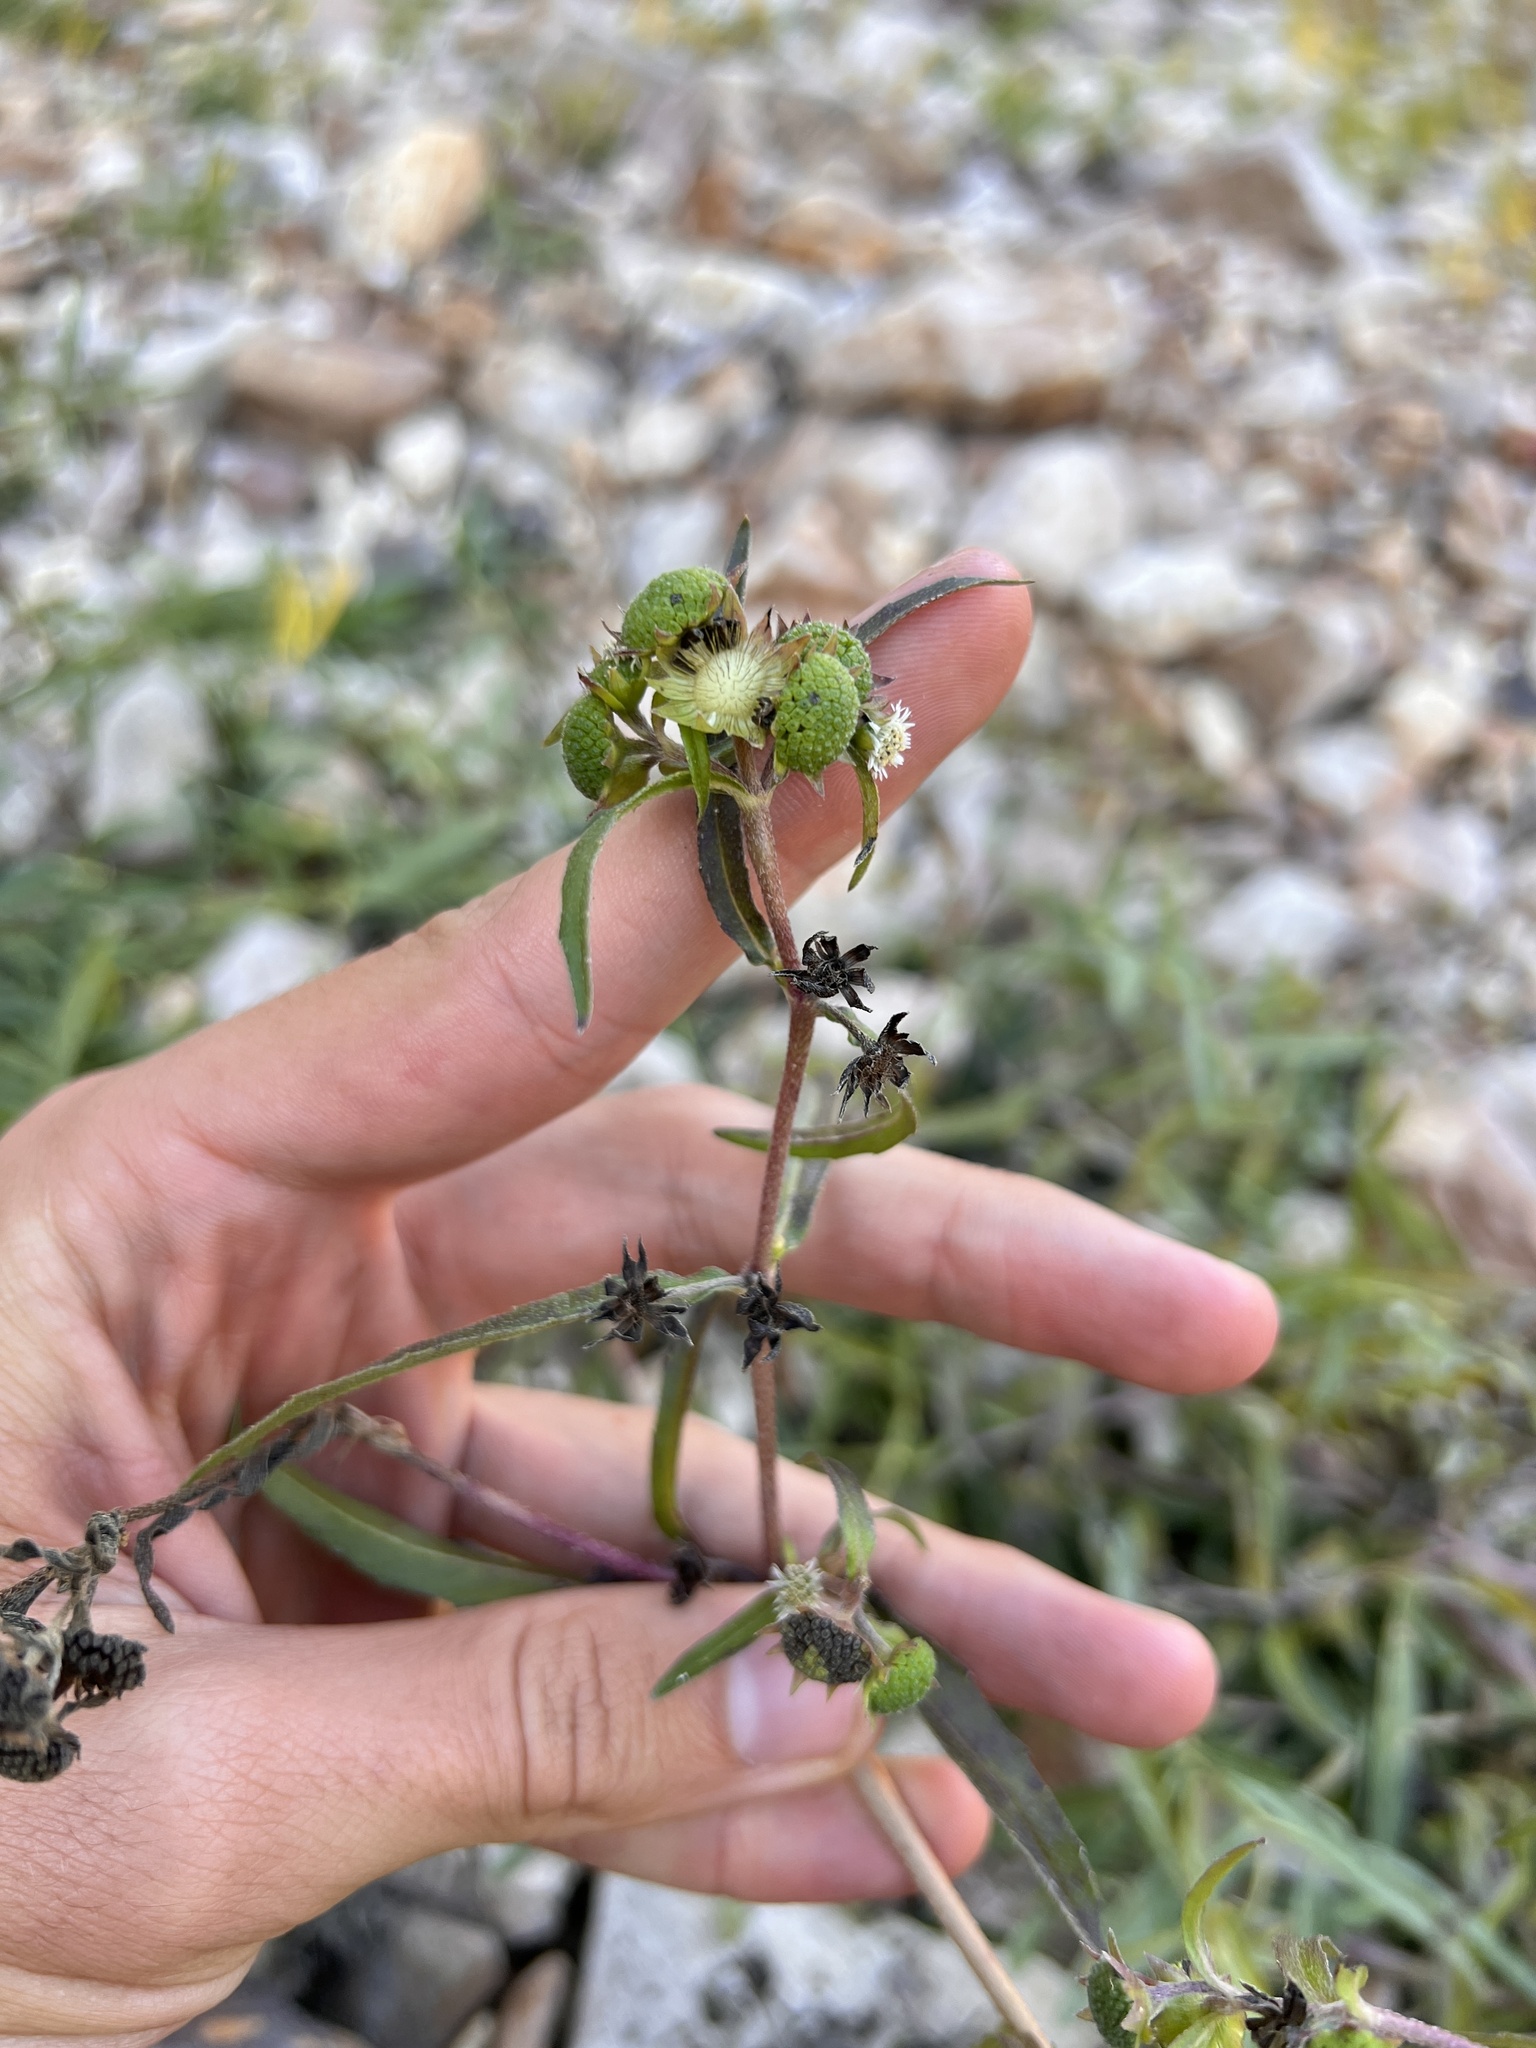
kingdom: Plantae
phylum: Tracheophyta
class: Magnoliopsida
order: Asterales
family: Asteraceae
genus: Eclipta
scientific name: Eclipta prostrata
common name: False daisy
